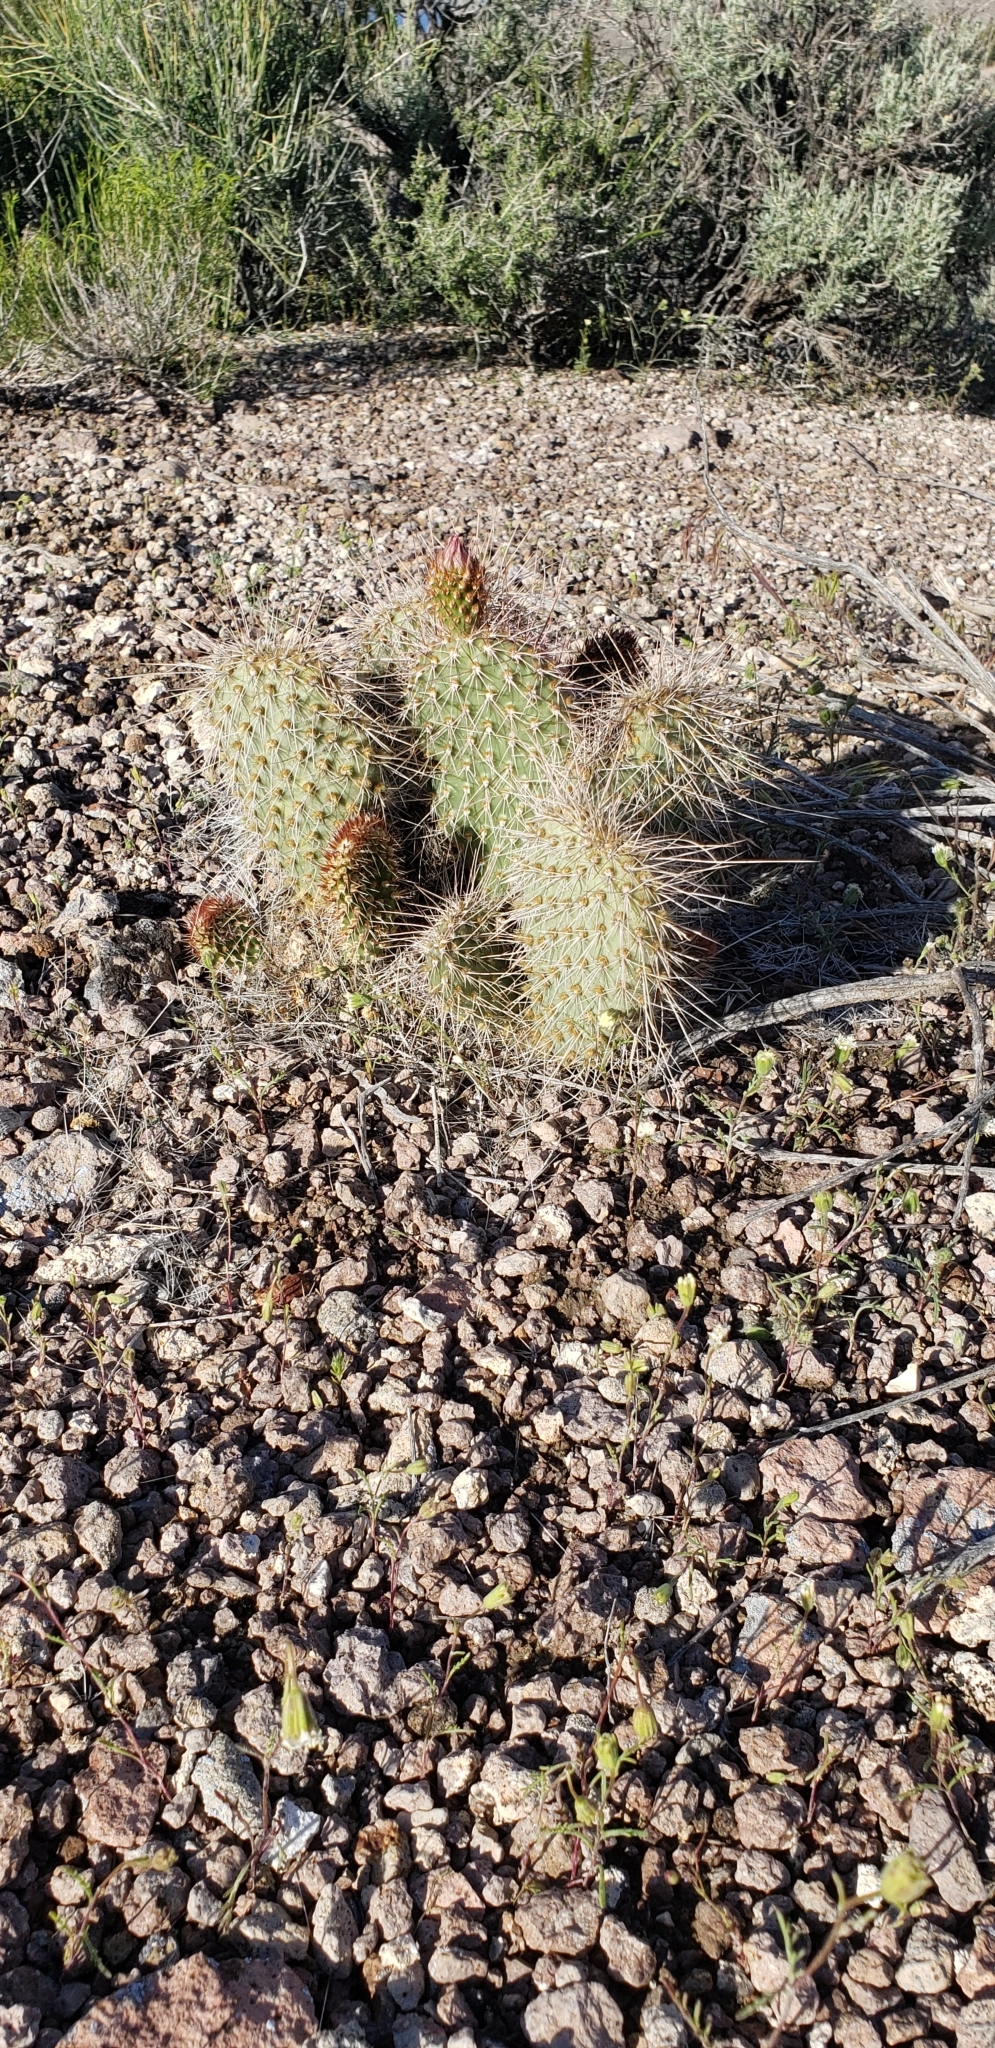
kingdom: Plantae
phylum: Tracheophyta
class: Magnoliopsida
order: Caryophyllales
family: Cactaceae
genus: Opuntia
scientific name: Opuntia polyacantha
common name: Plains prickly-pear
